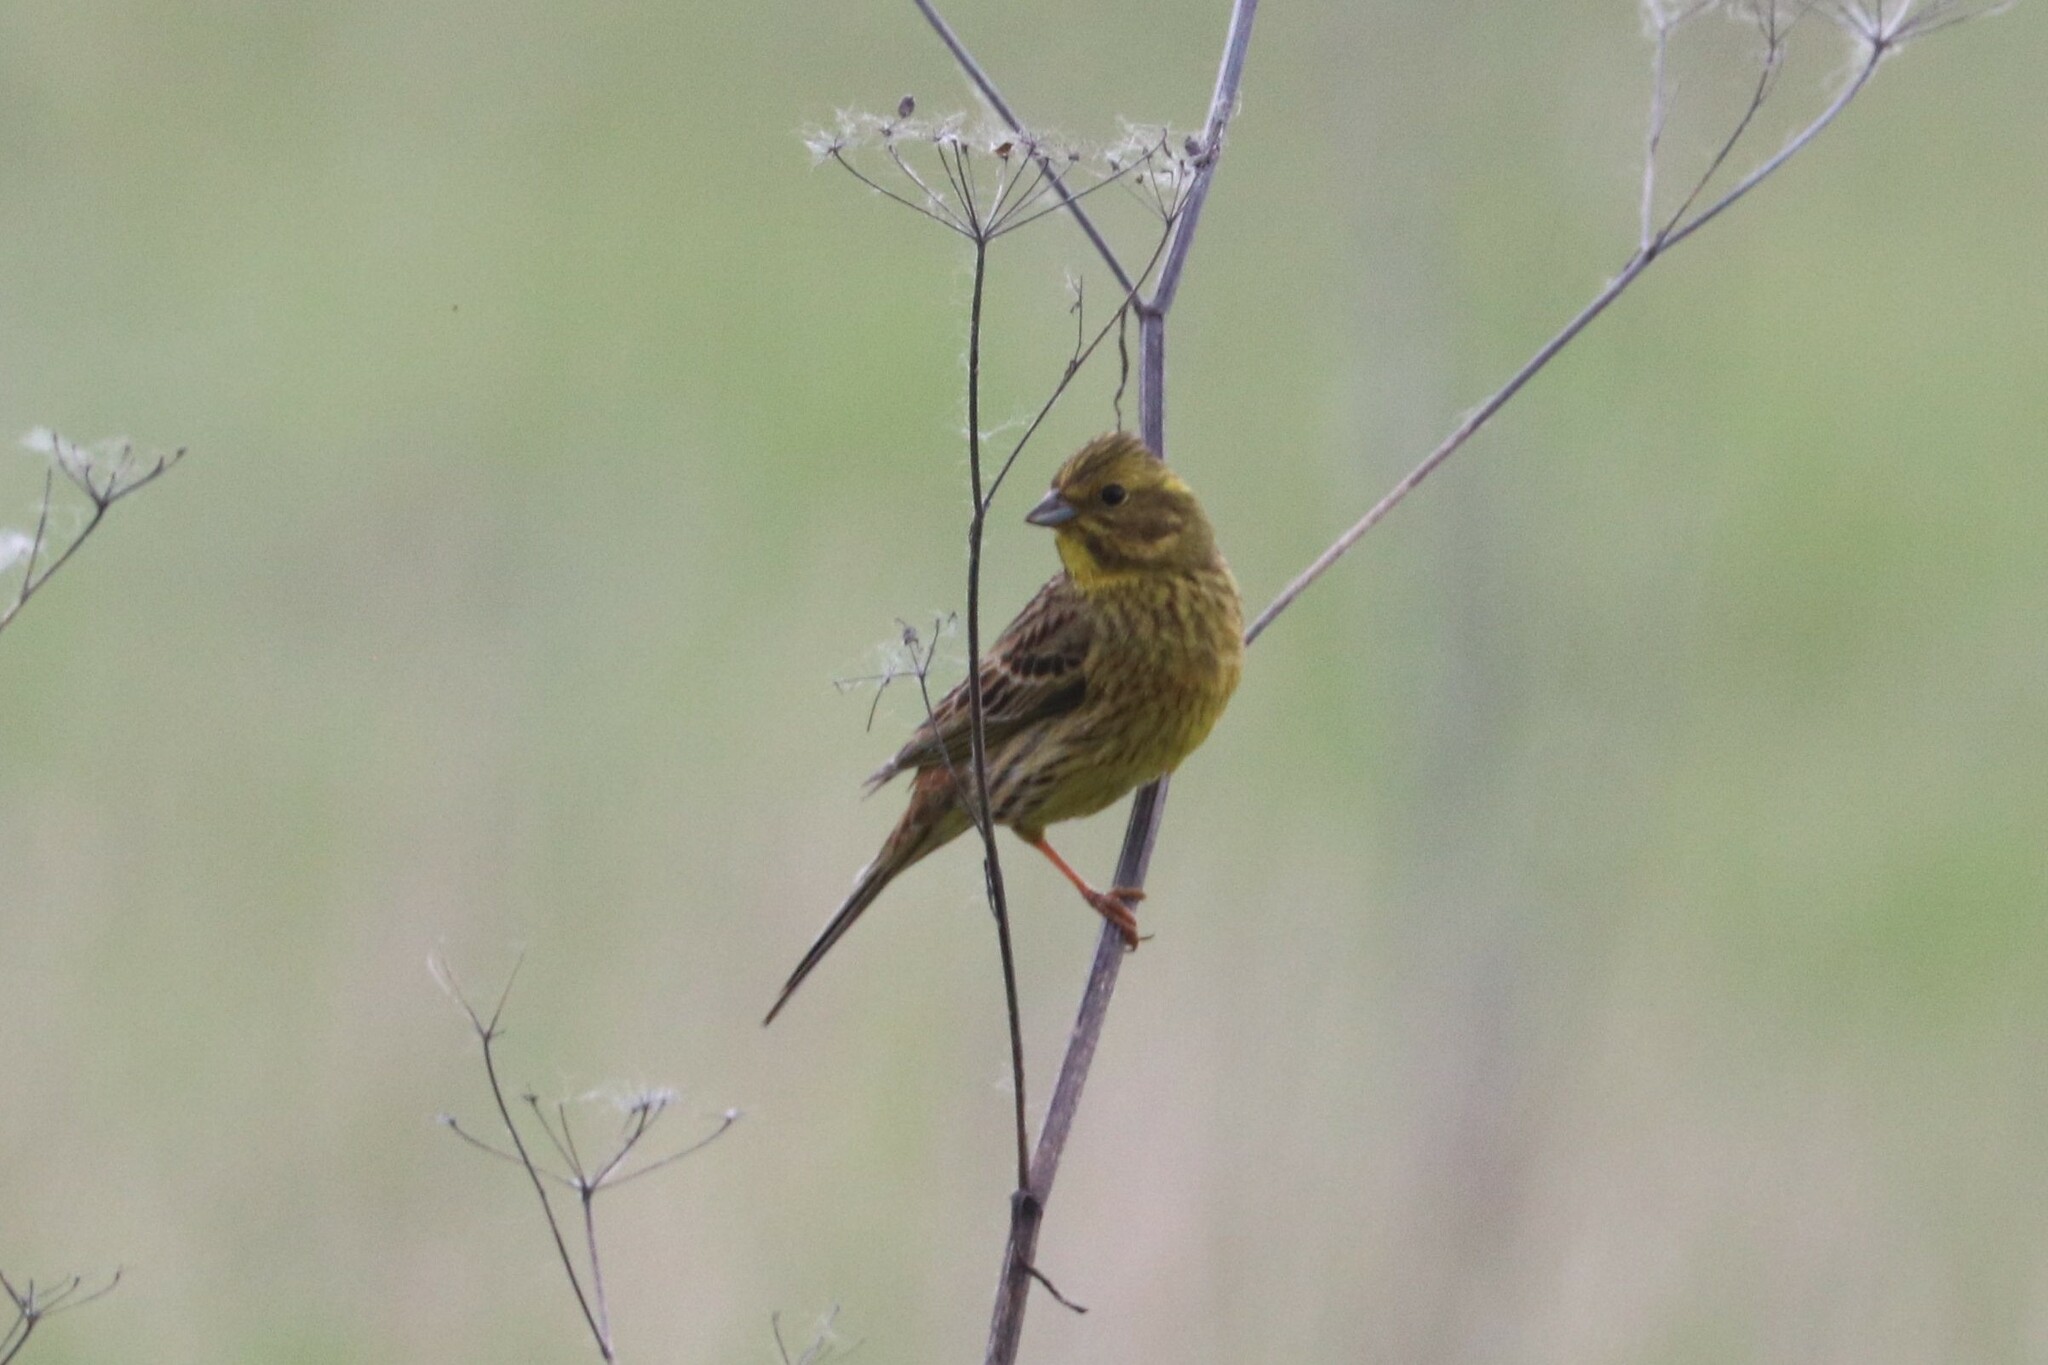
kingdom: Animalia
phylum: Chordata
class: Aves
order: Passeriformes
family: Emberizidae
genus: Emberiza
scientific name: Emberiza citrinella
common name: Yellowhammer
